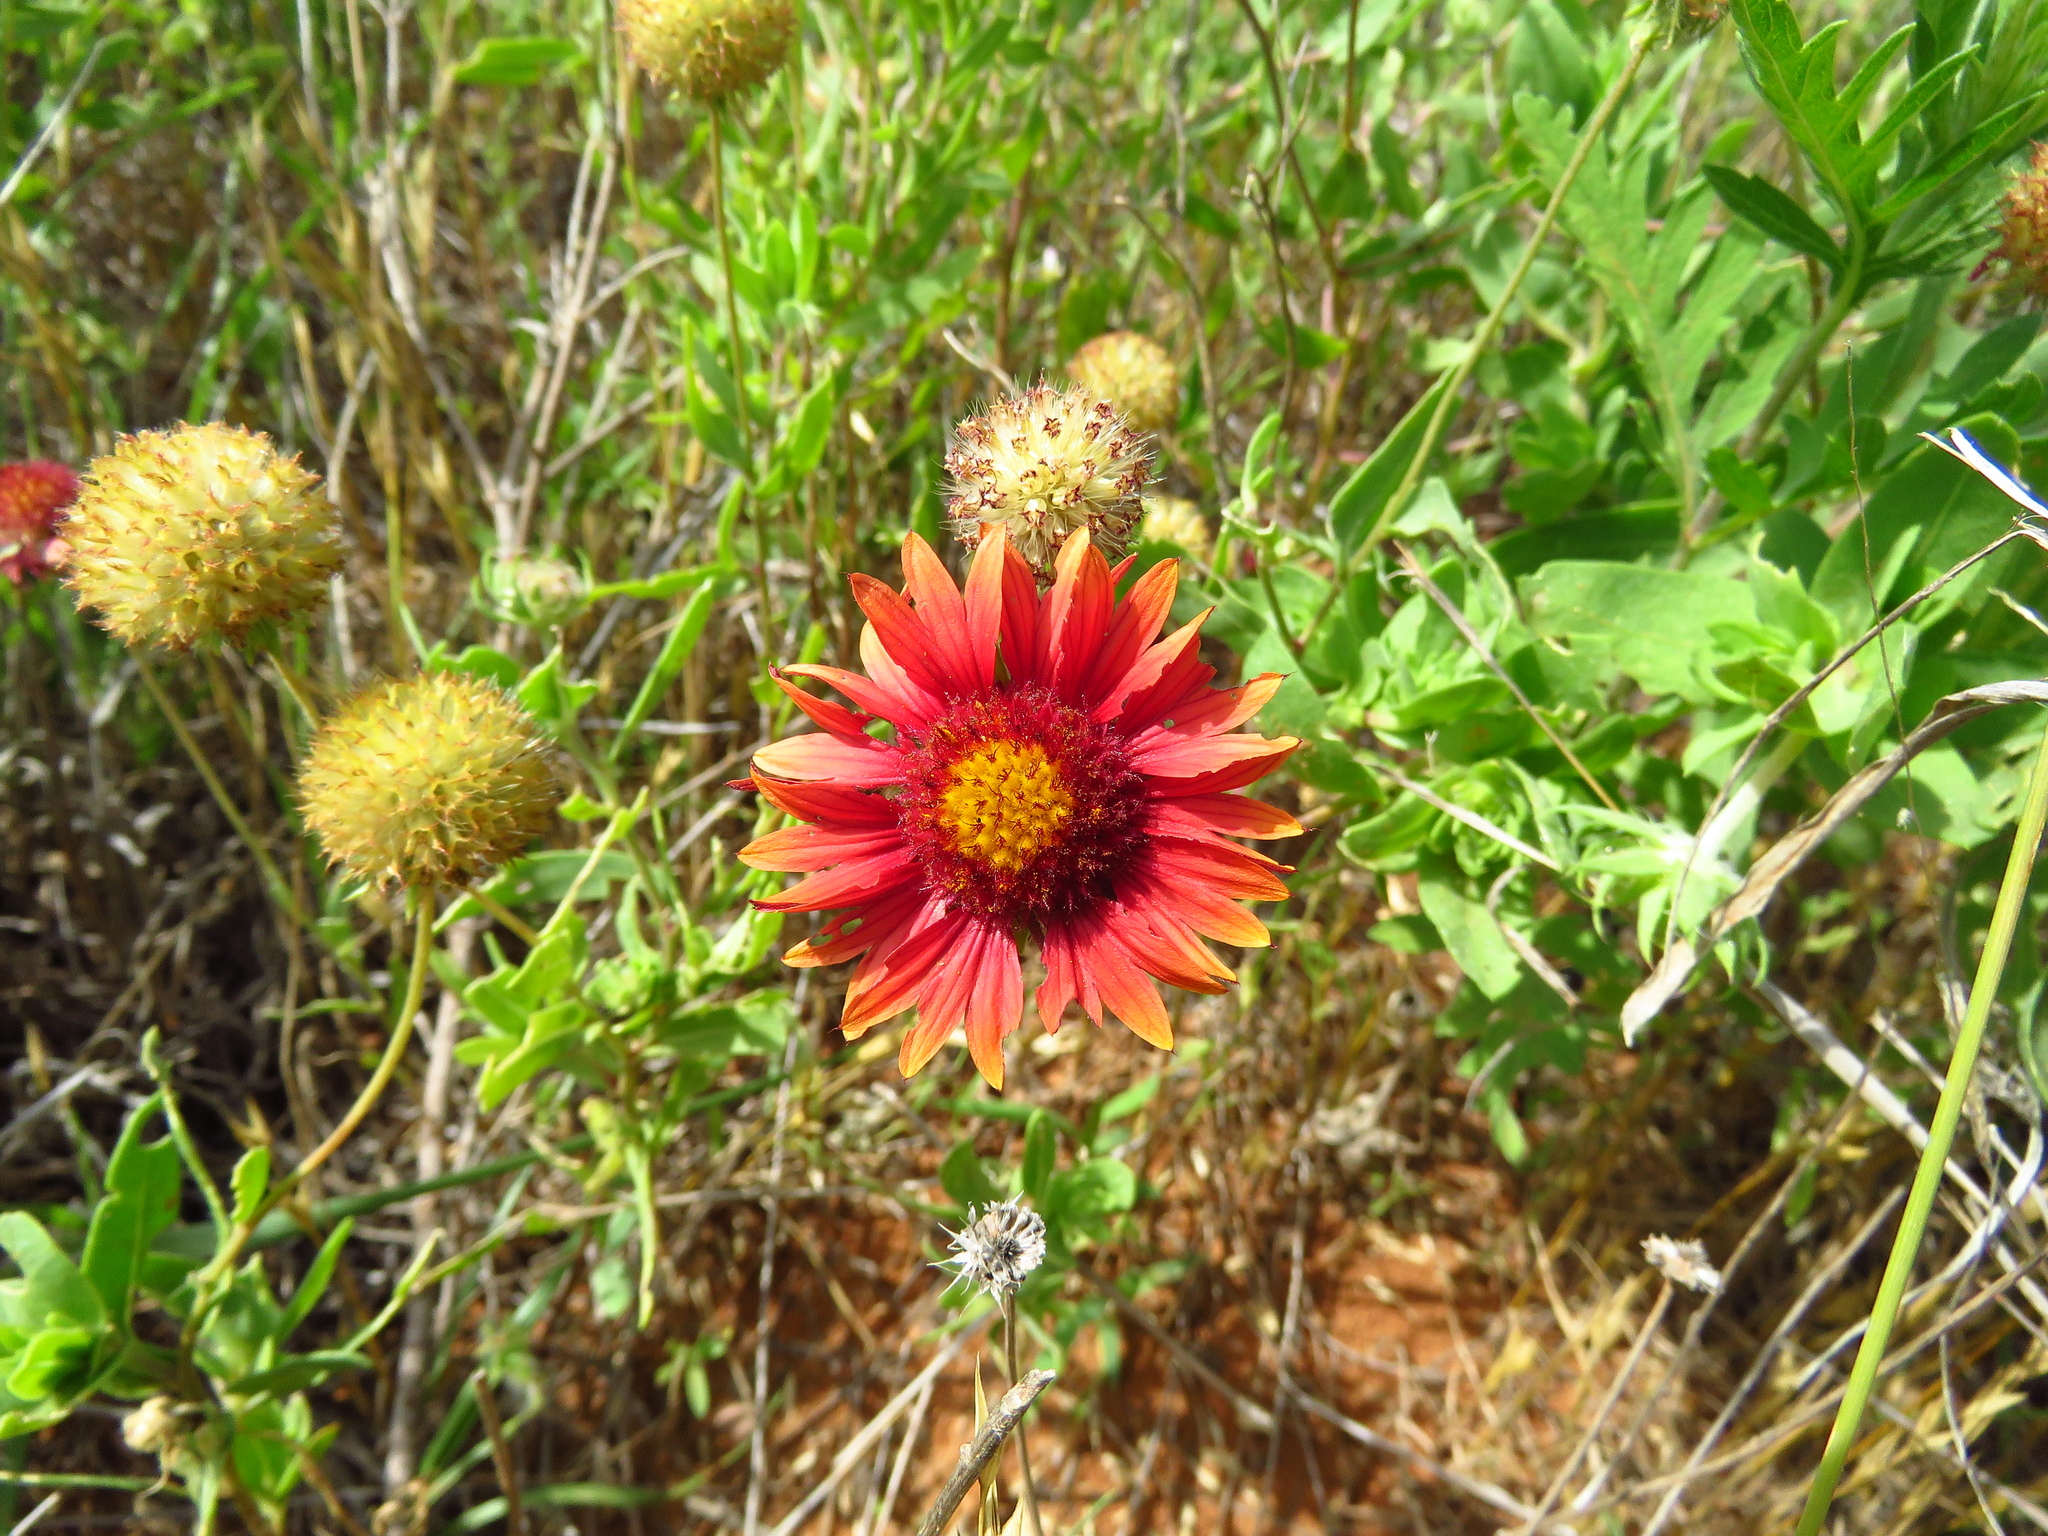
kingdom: Plantae
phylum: Tracheophyta
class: Magnoliopsida
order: Asterales
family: Asteraceae
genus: Gaillardia
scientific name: Gaillardia pulchella
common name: Firewheel
